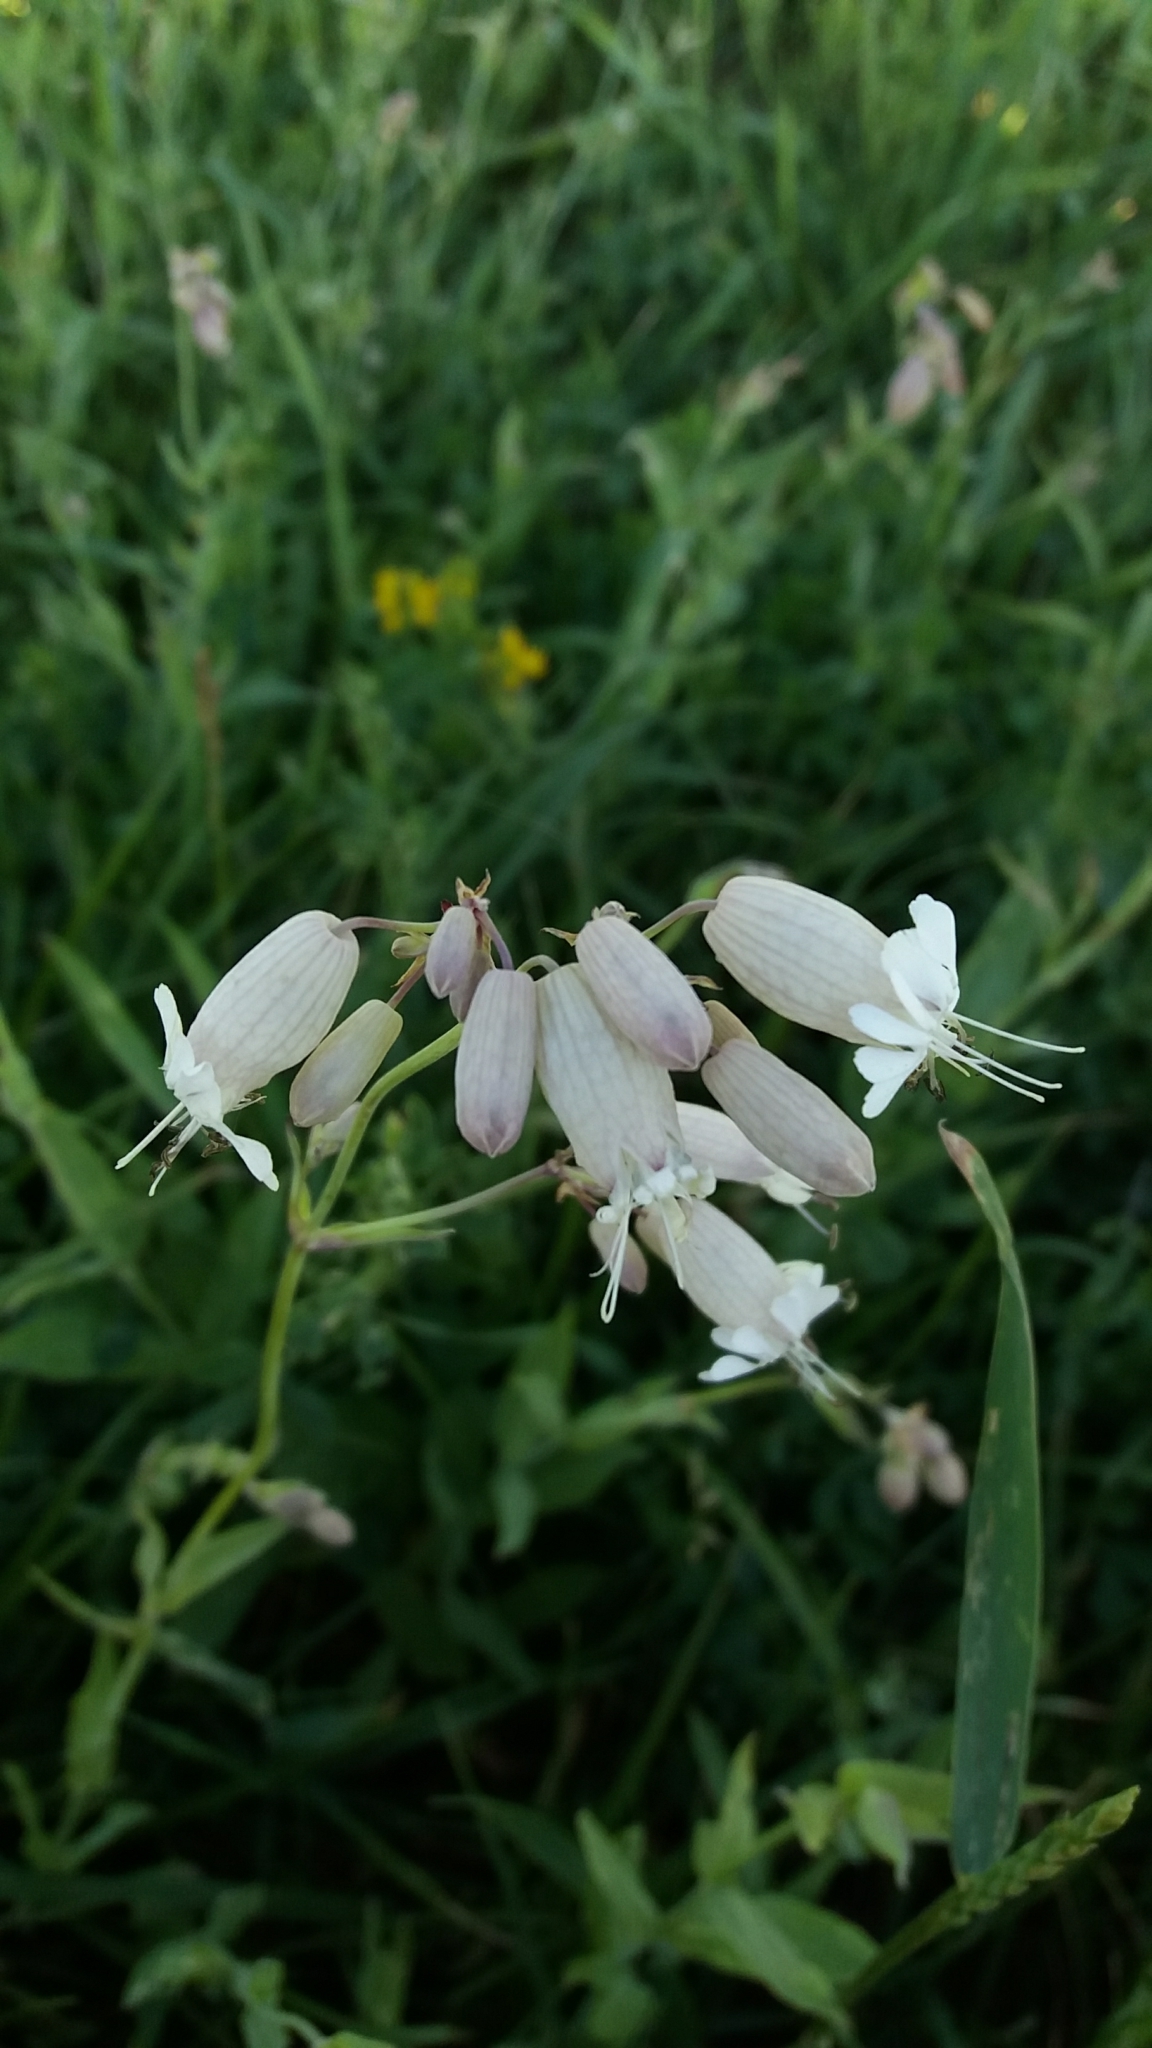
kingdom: Plantae
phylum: Tracheophyta
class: Magnoliopsida
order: Caryophyllales
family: Caryophyllaceae
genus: Silene
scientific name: Silene vulgaris
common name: Bladder campion
